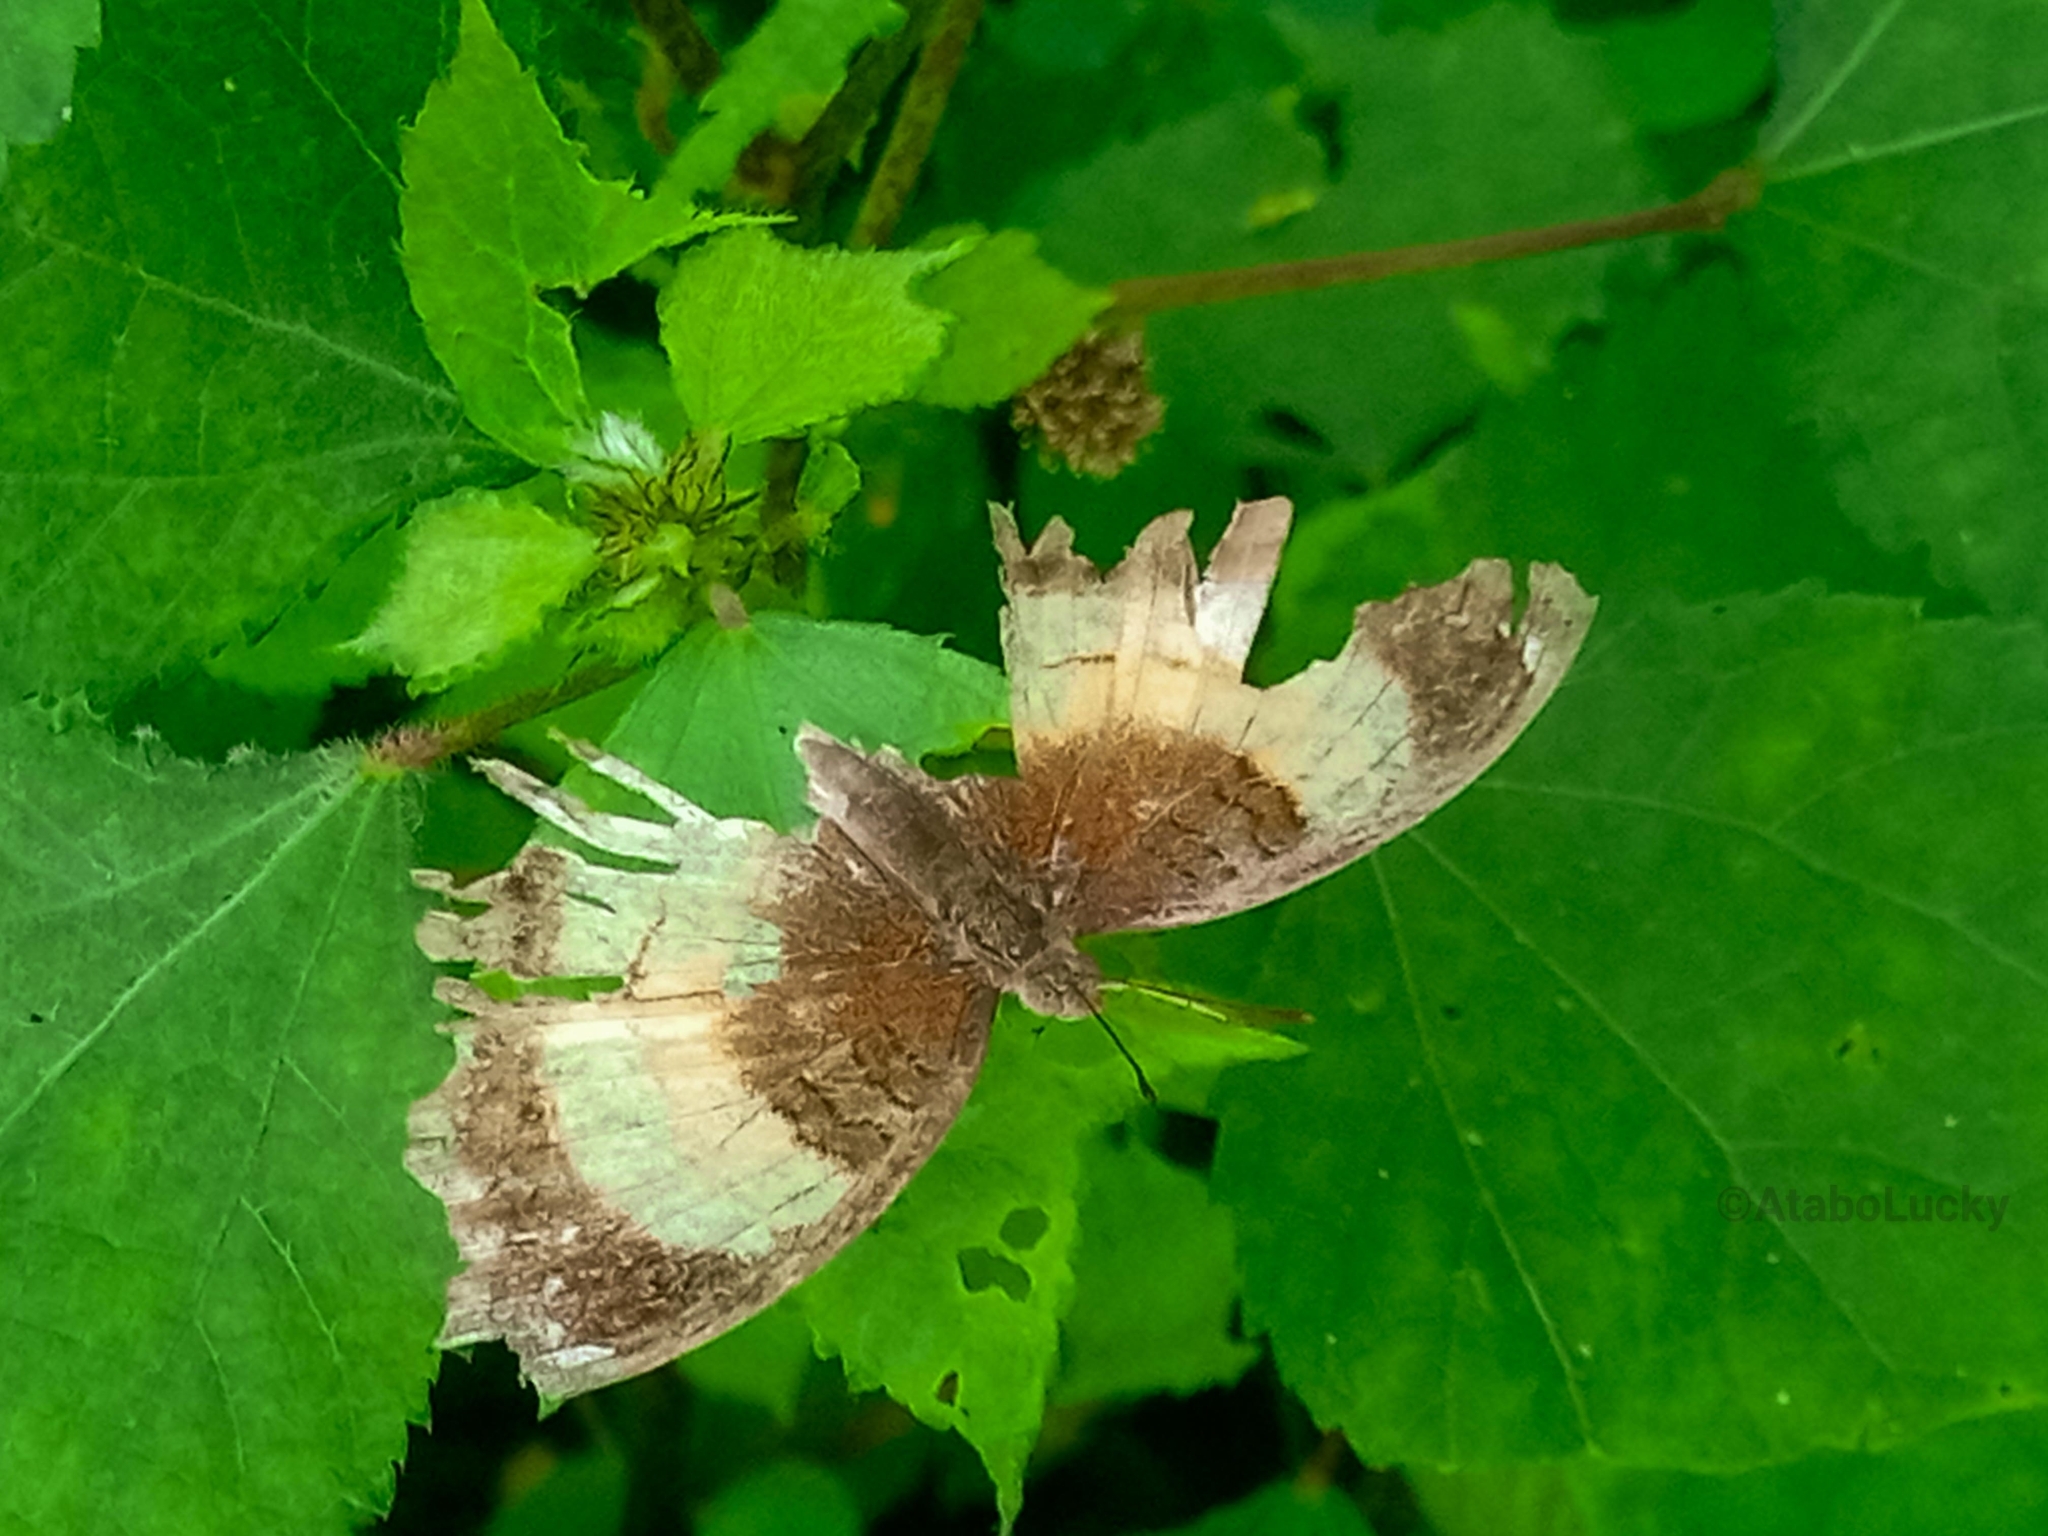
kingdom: Animalia
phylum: Arthropoda
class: Insecta
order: Lepidoptera
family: Nymphalidae
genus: Junonia
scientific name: Junonia terea
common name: Soldier pansy
